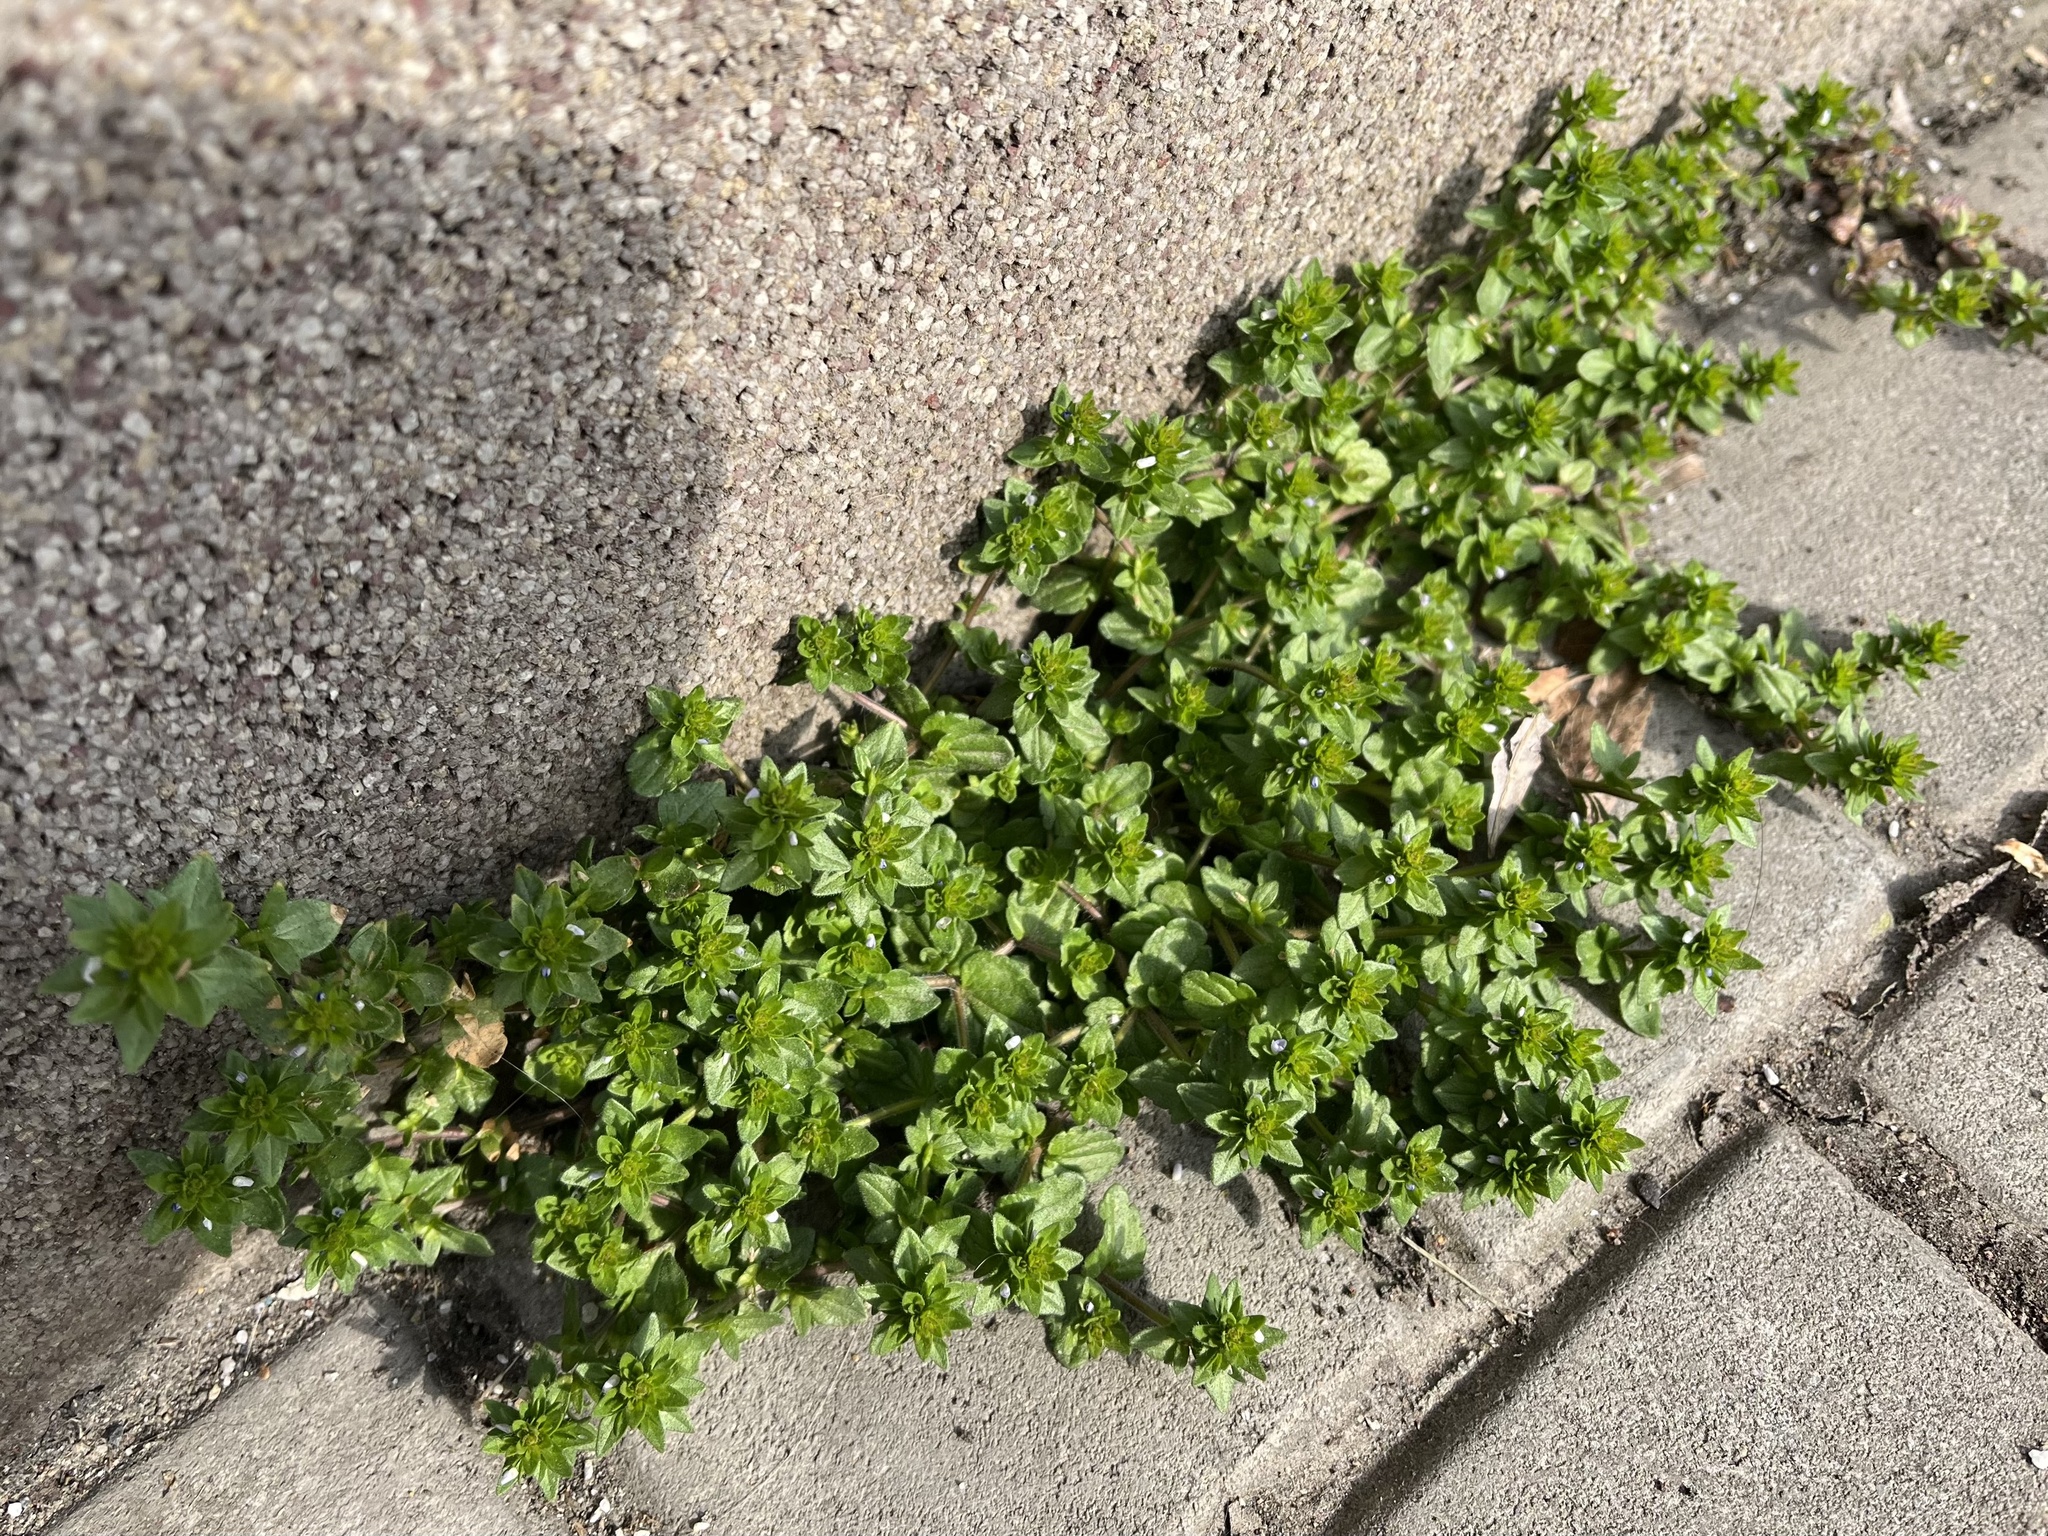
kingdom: Plantae
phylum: Tracheophyta
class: Magnoliopsida
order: Lamiales
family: Plantaginaceae
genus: Veronica
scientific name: Veronica arvensis
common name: Corn speedwell
